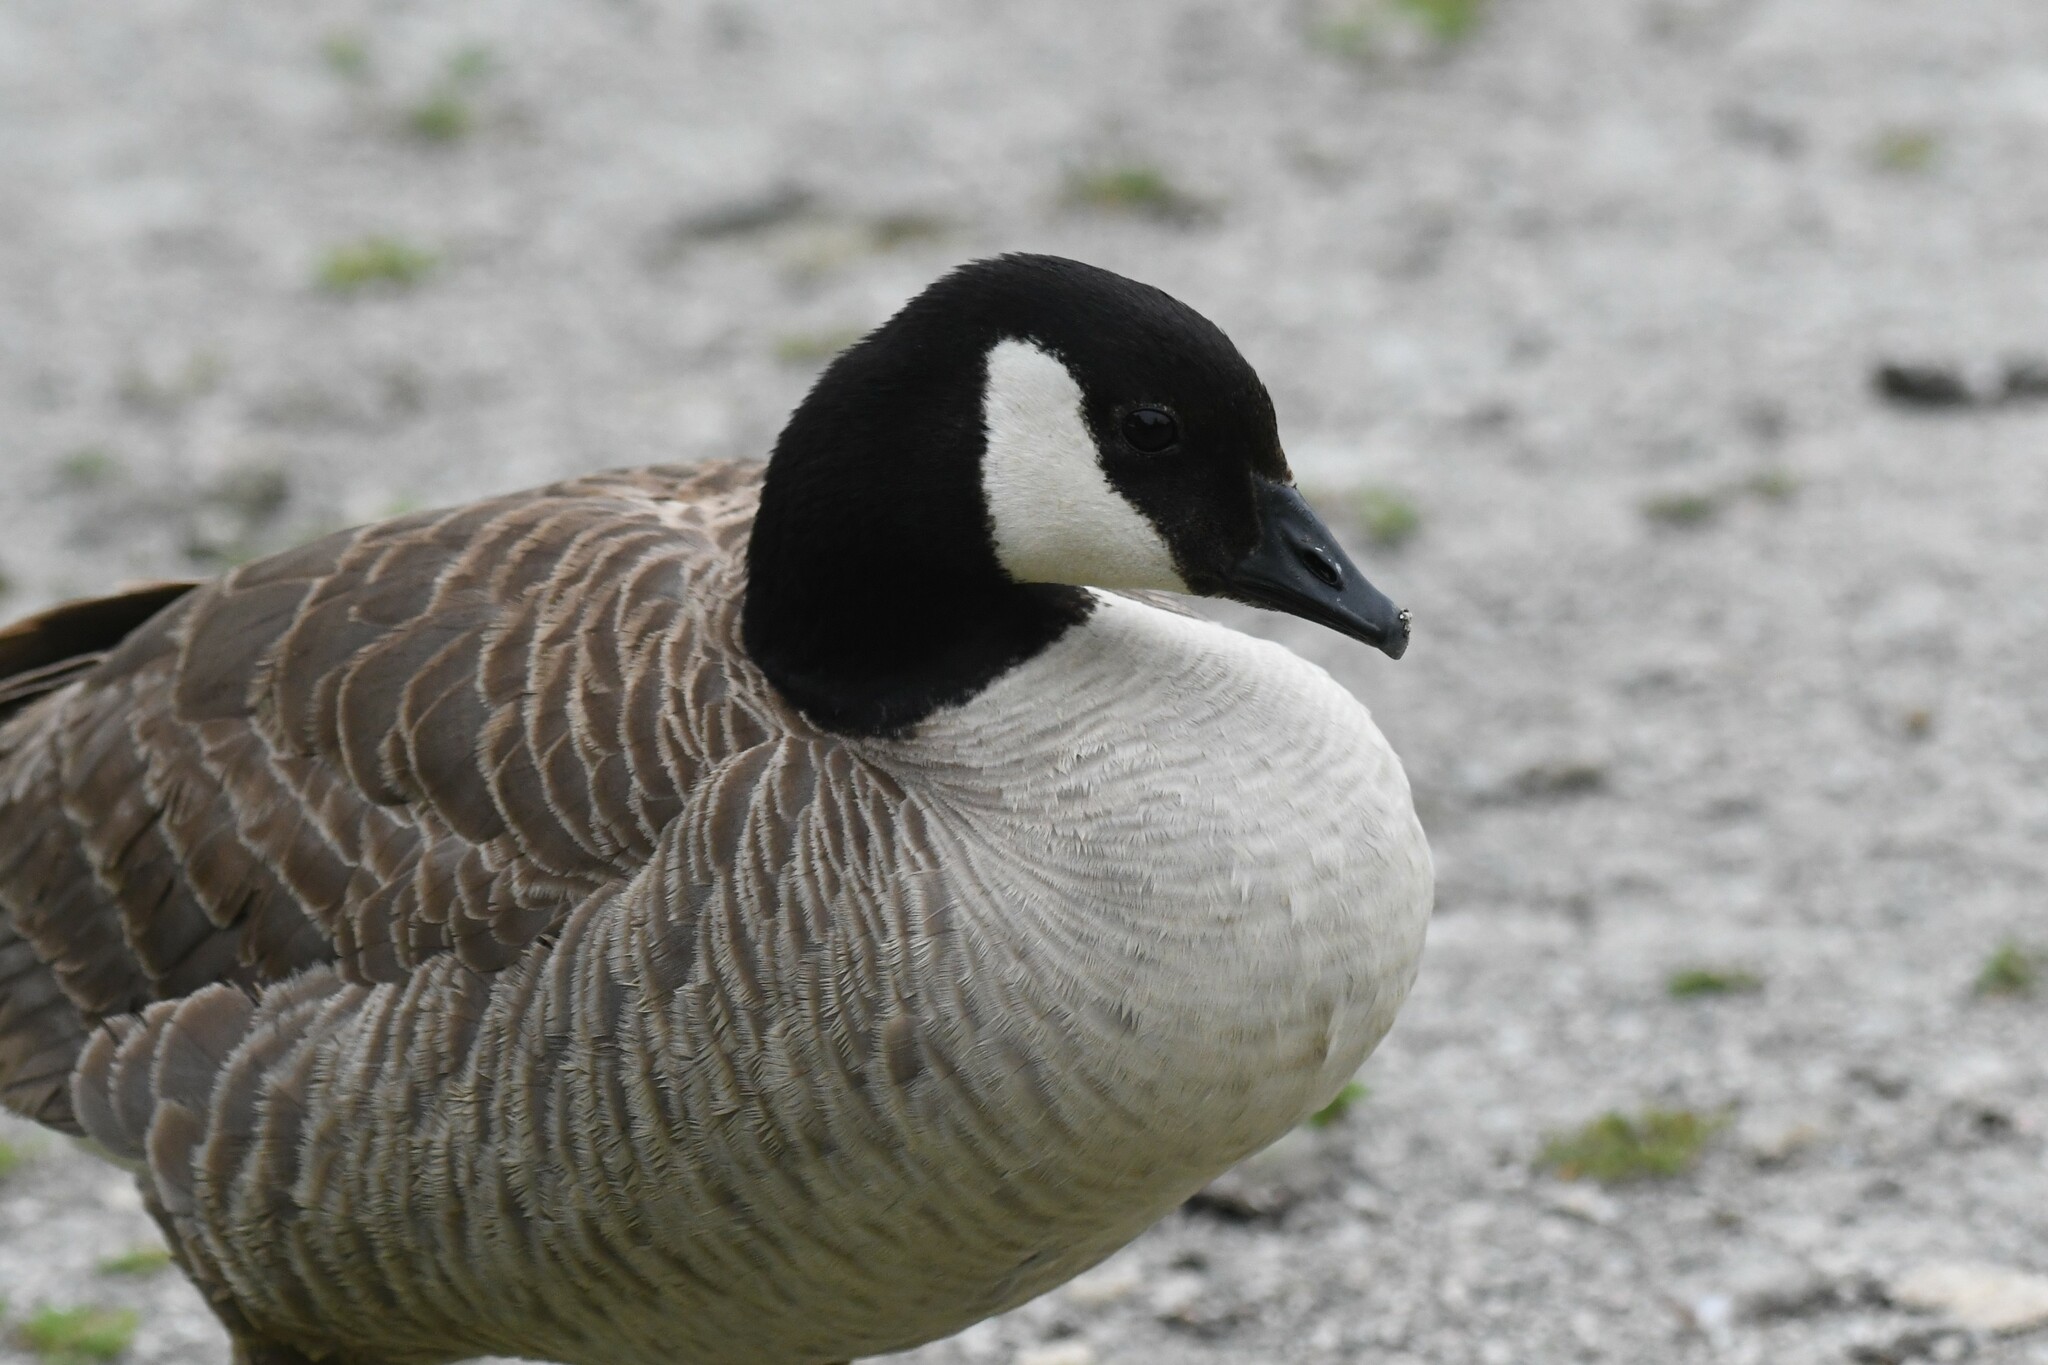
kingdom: Animalia
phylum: Chordata
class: Aves
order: Anseriformes
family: Anatidae
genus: Branta
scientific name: Branta hutchinsii
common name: Cackling goose
